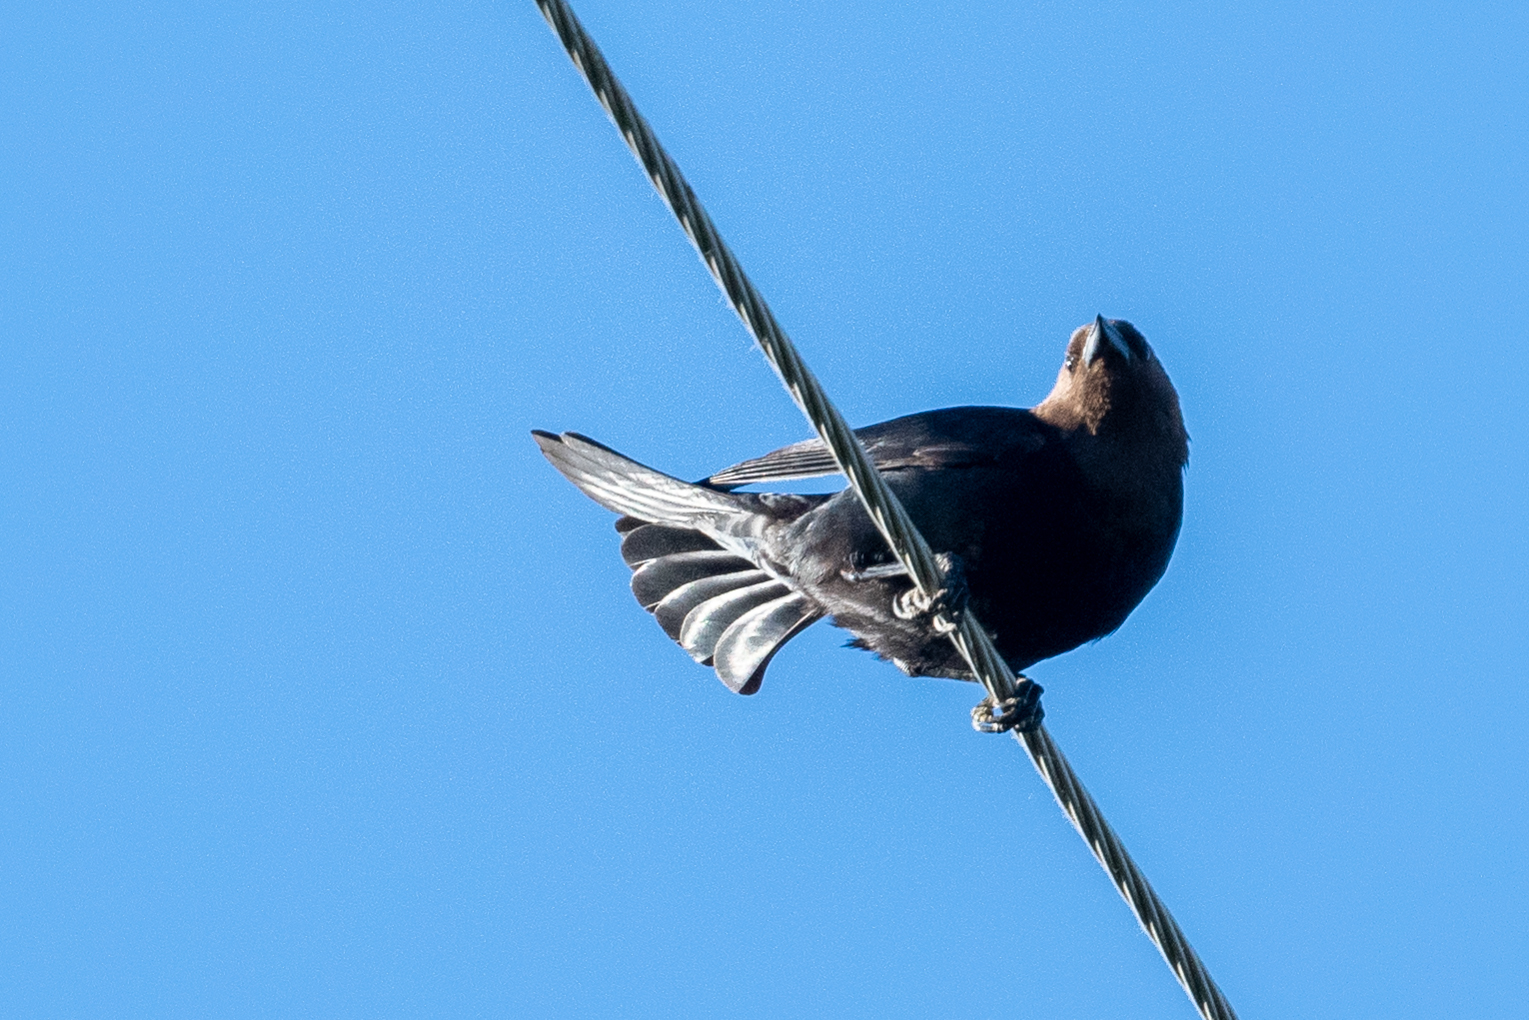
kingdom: Animalia
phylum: Chordata
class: Aves
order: Passeriformes
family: Icteridae
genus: Molothrus
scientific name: Molothrus ater
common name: Brown-headed cowbird
